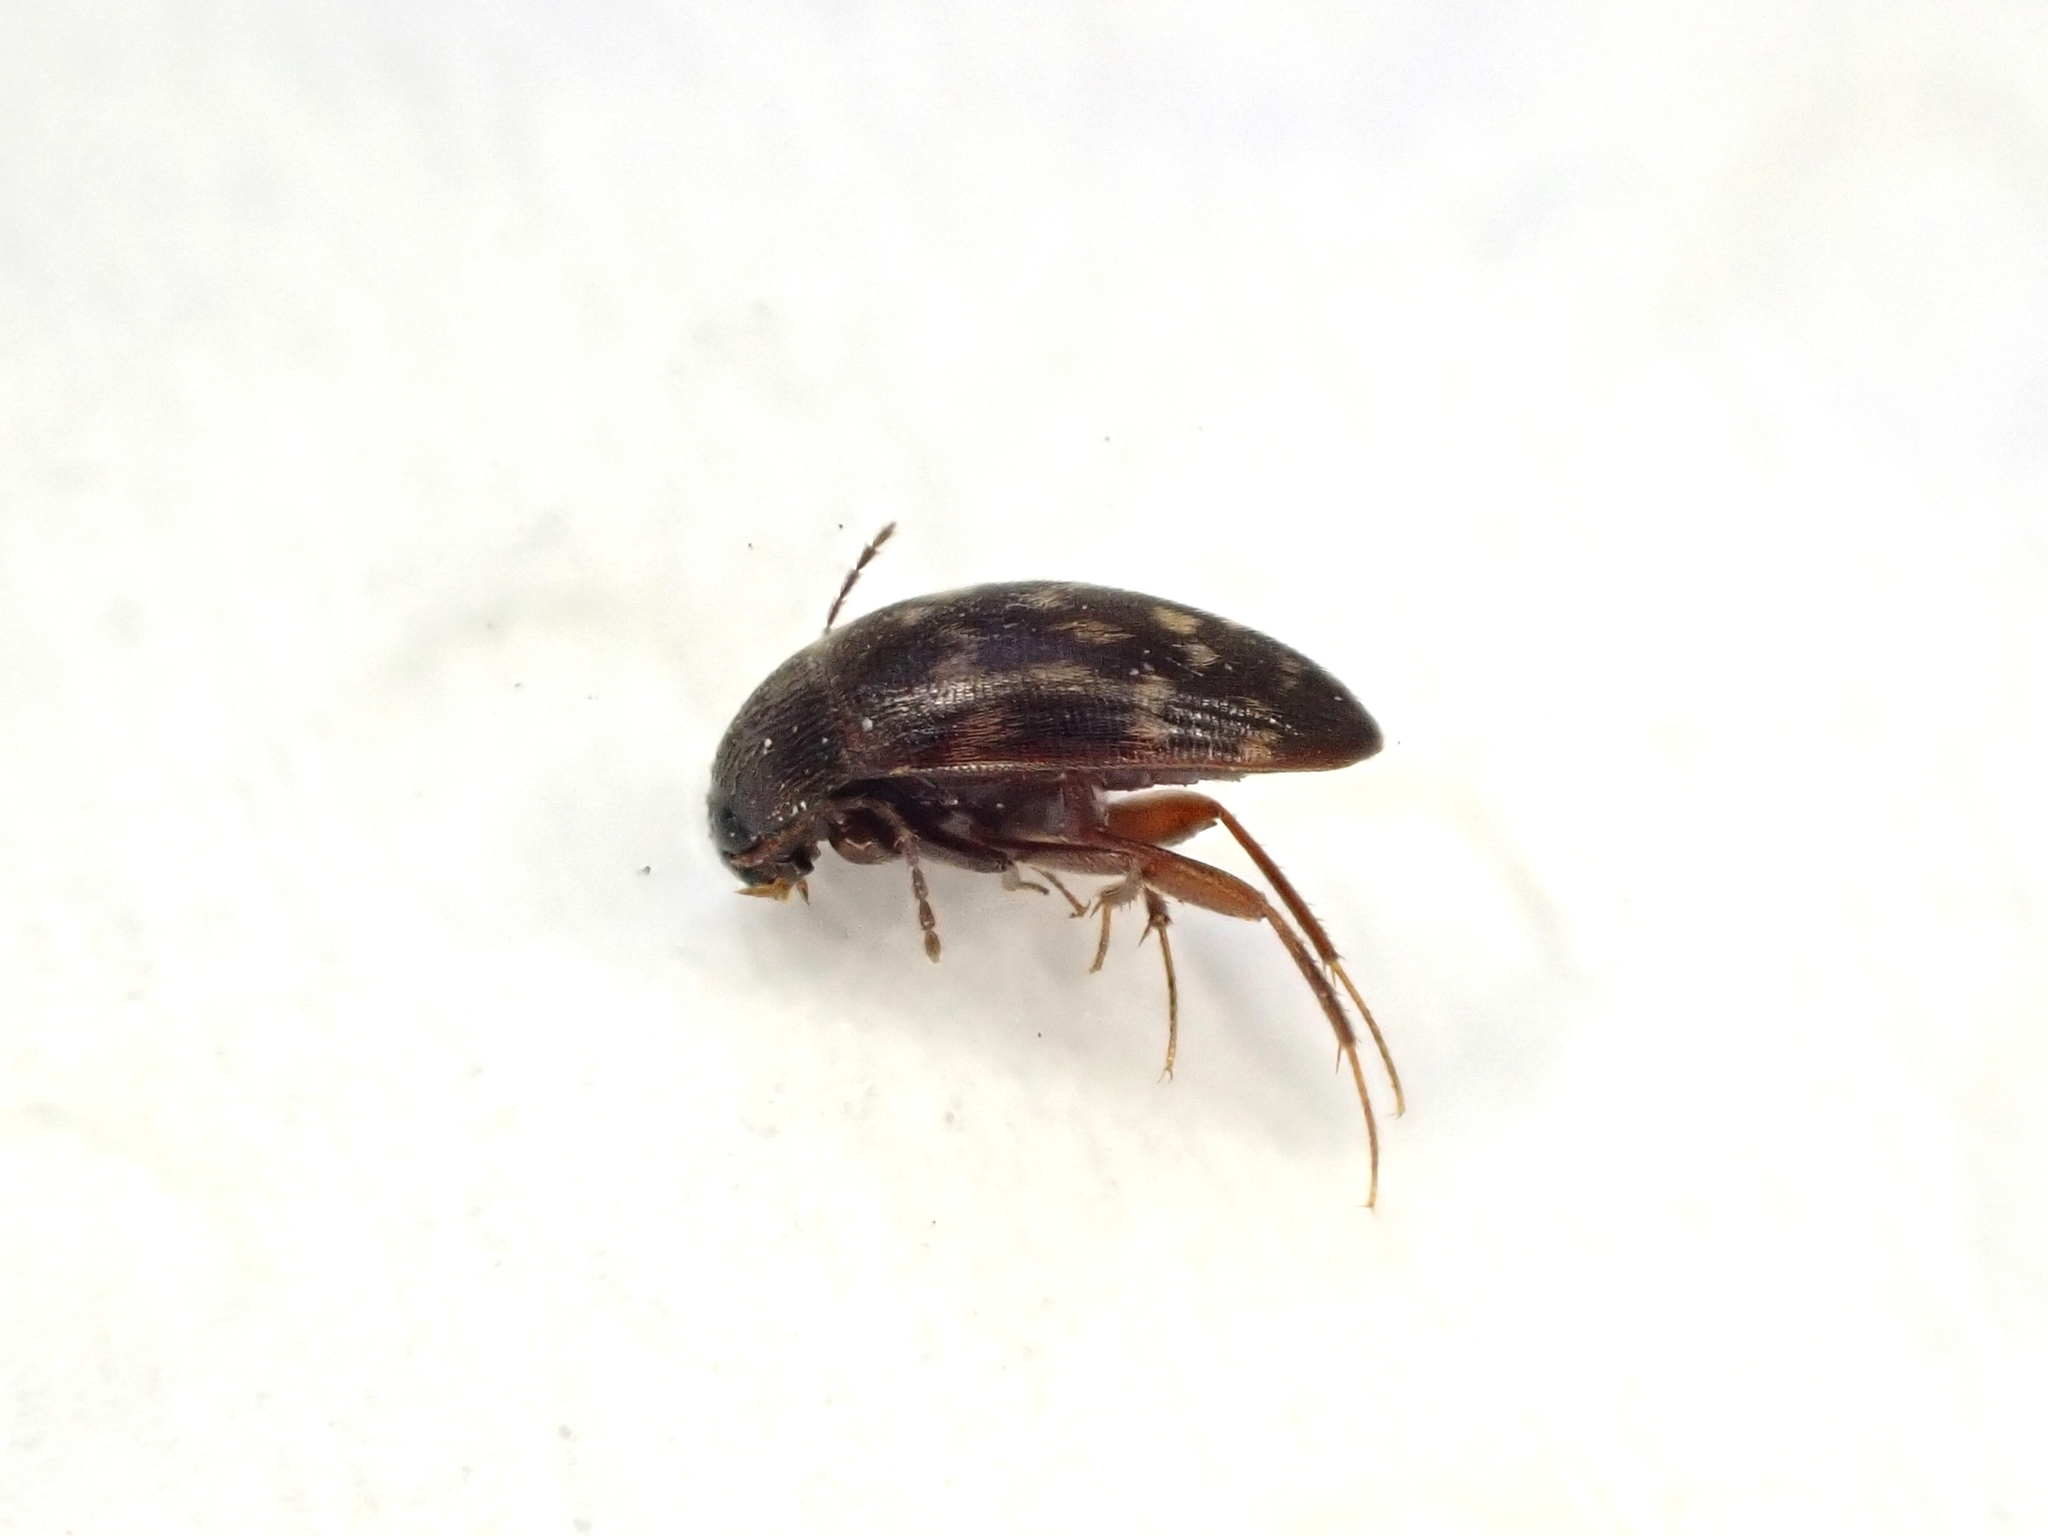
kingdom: Animalia
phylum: Arthropoda
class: Insecta
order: Coleoptera
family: Leiodidae
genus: Zearagytodes
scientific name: Zearagytodes maculifer
